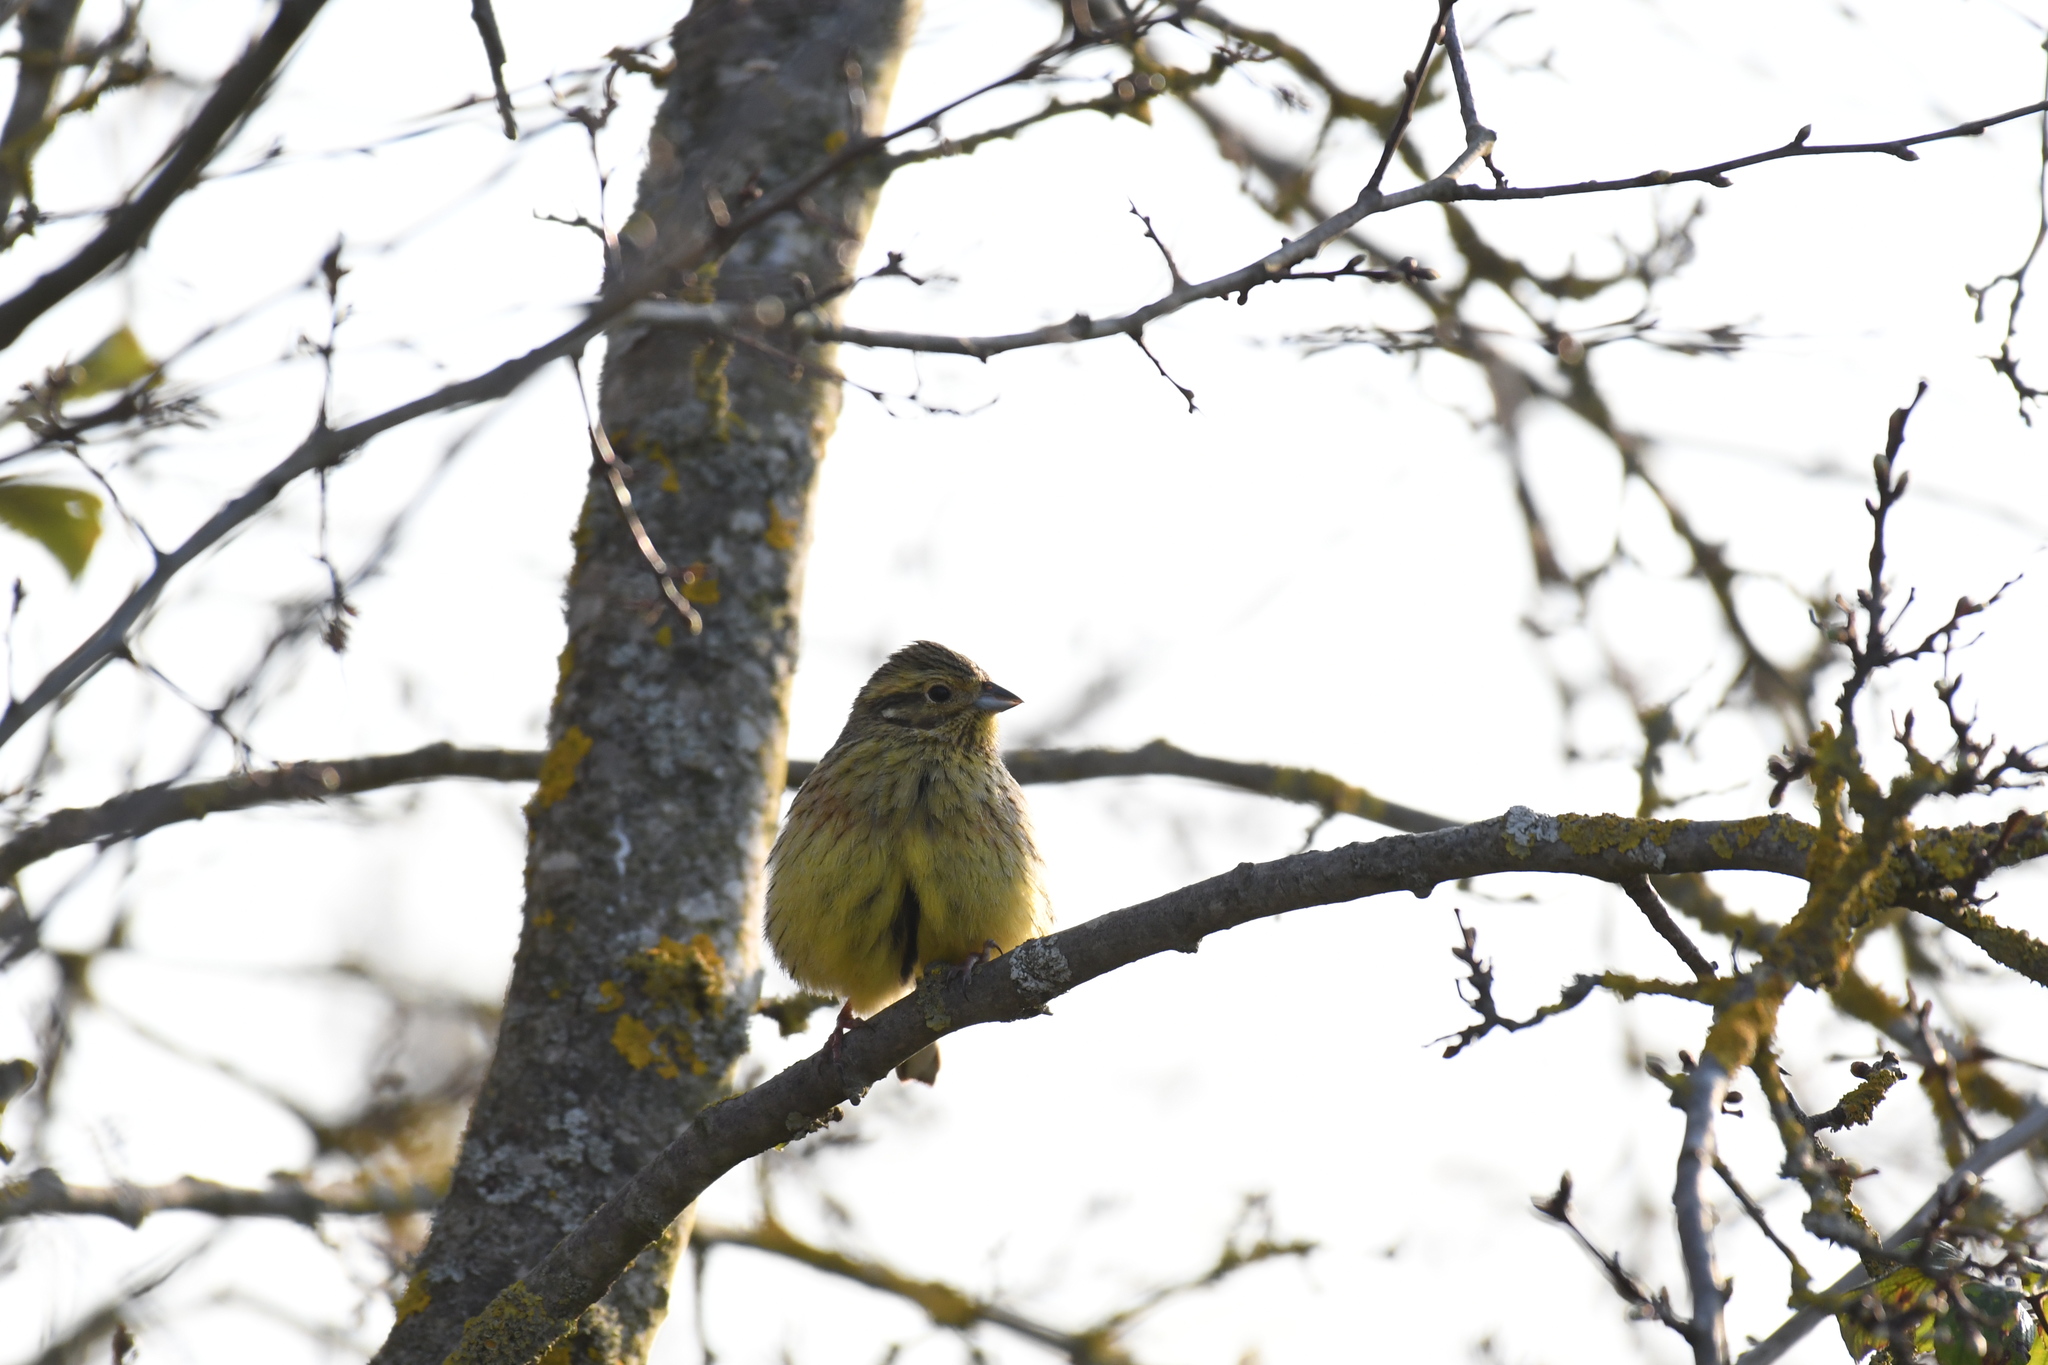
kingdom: Animalia
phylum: Chordata
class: Aves
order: Passeriformes
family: Emberizidae
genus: Emberiza
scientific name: Emberiza cirlus
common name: Cirl bunting
